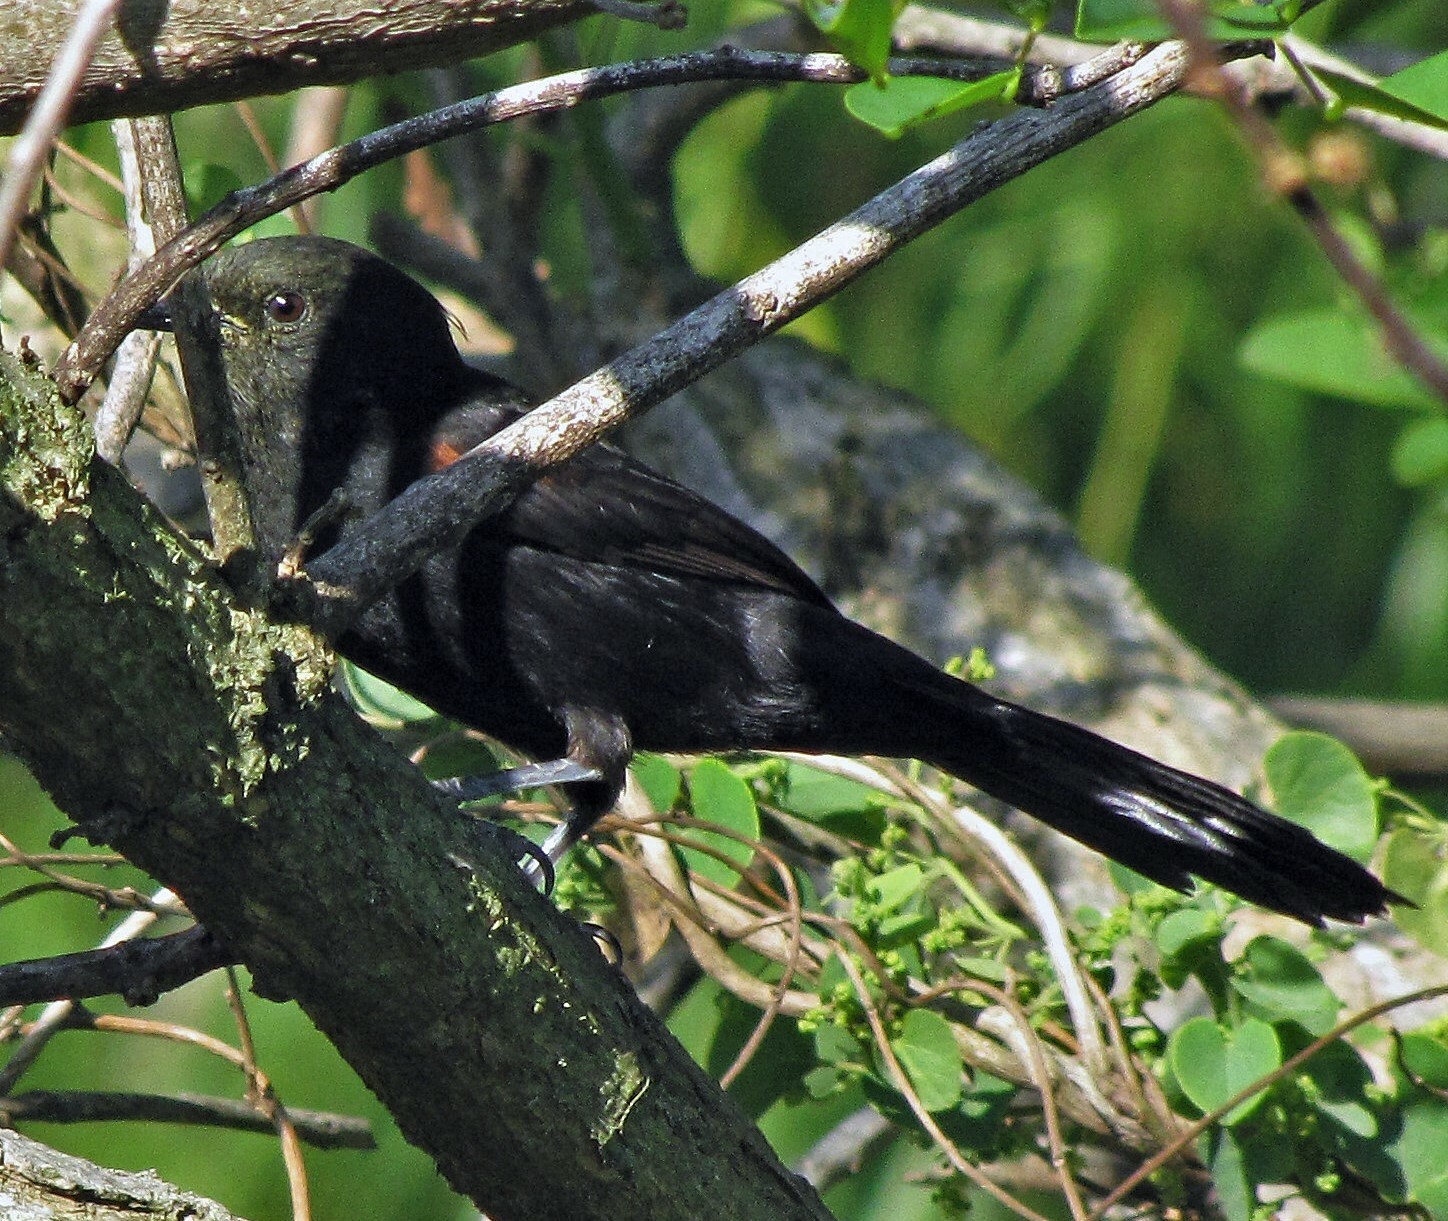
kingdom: Animalia
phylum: Chordata
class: Aves
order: Passeriformes
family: Icteridae
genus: Icterus
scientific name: Icterus cayanensis
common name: Epaulet oriole
